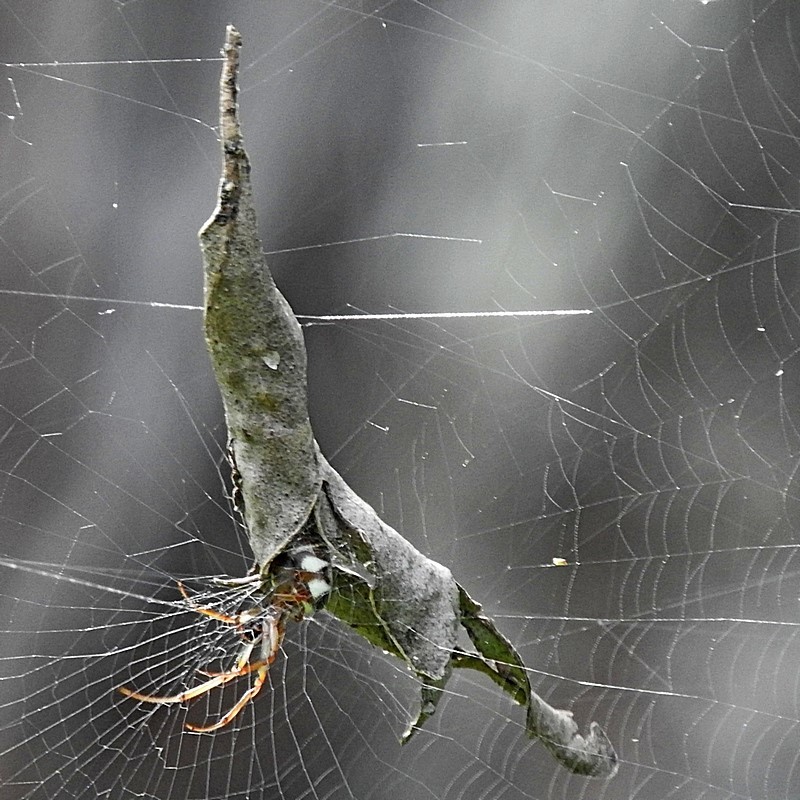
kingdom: Animalia
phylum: Arthropoda
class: Arachnida
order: Araneae
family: Araneidae
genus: Phonognatha
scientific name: Phonognatha graeffei
